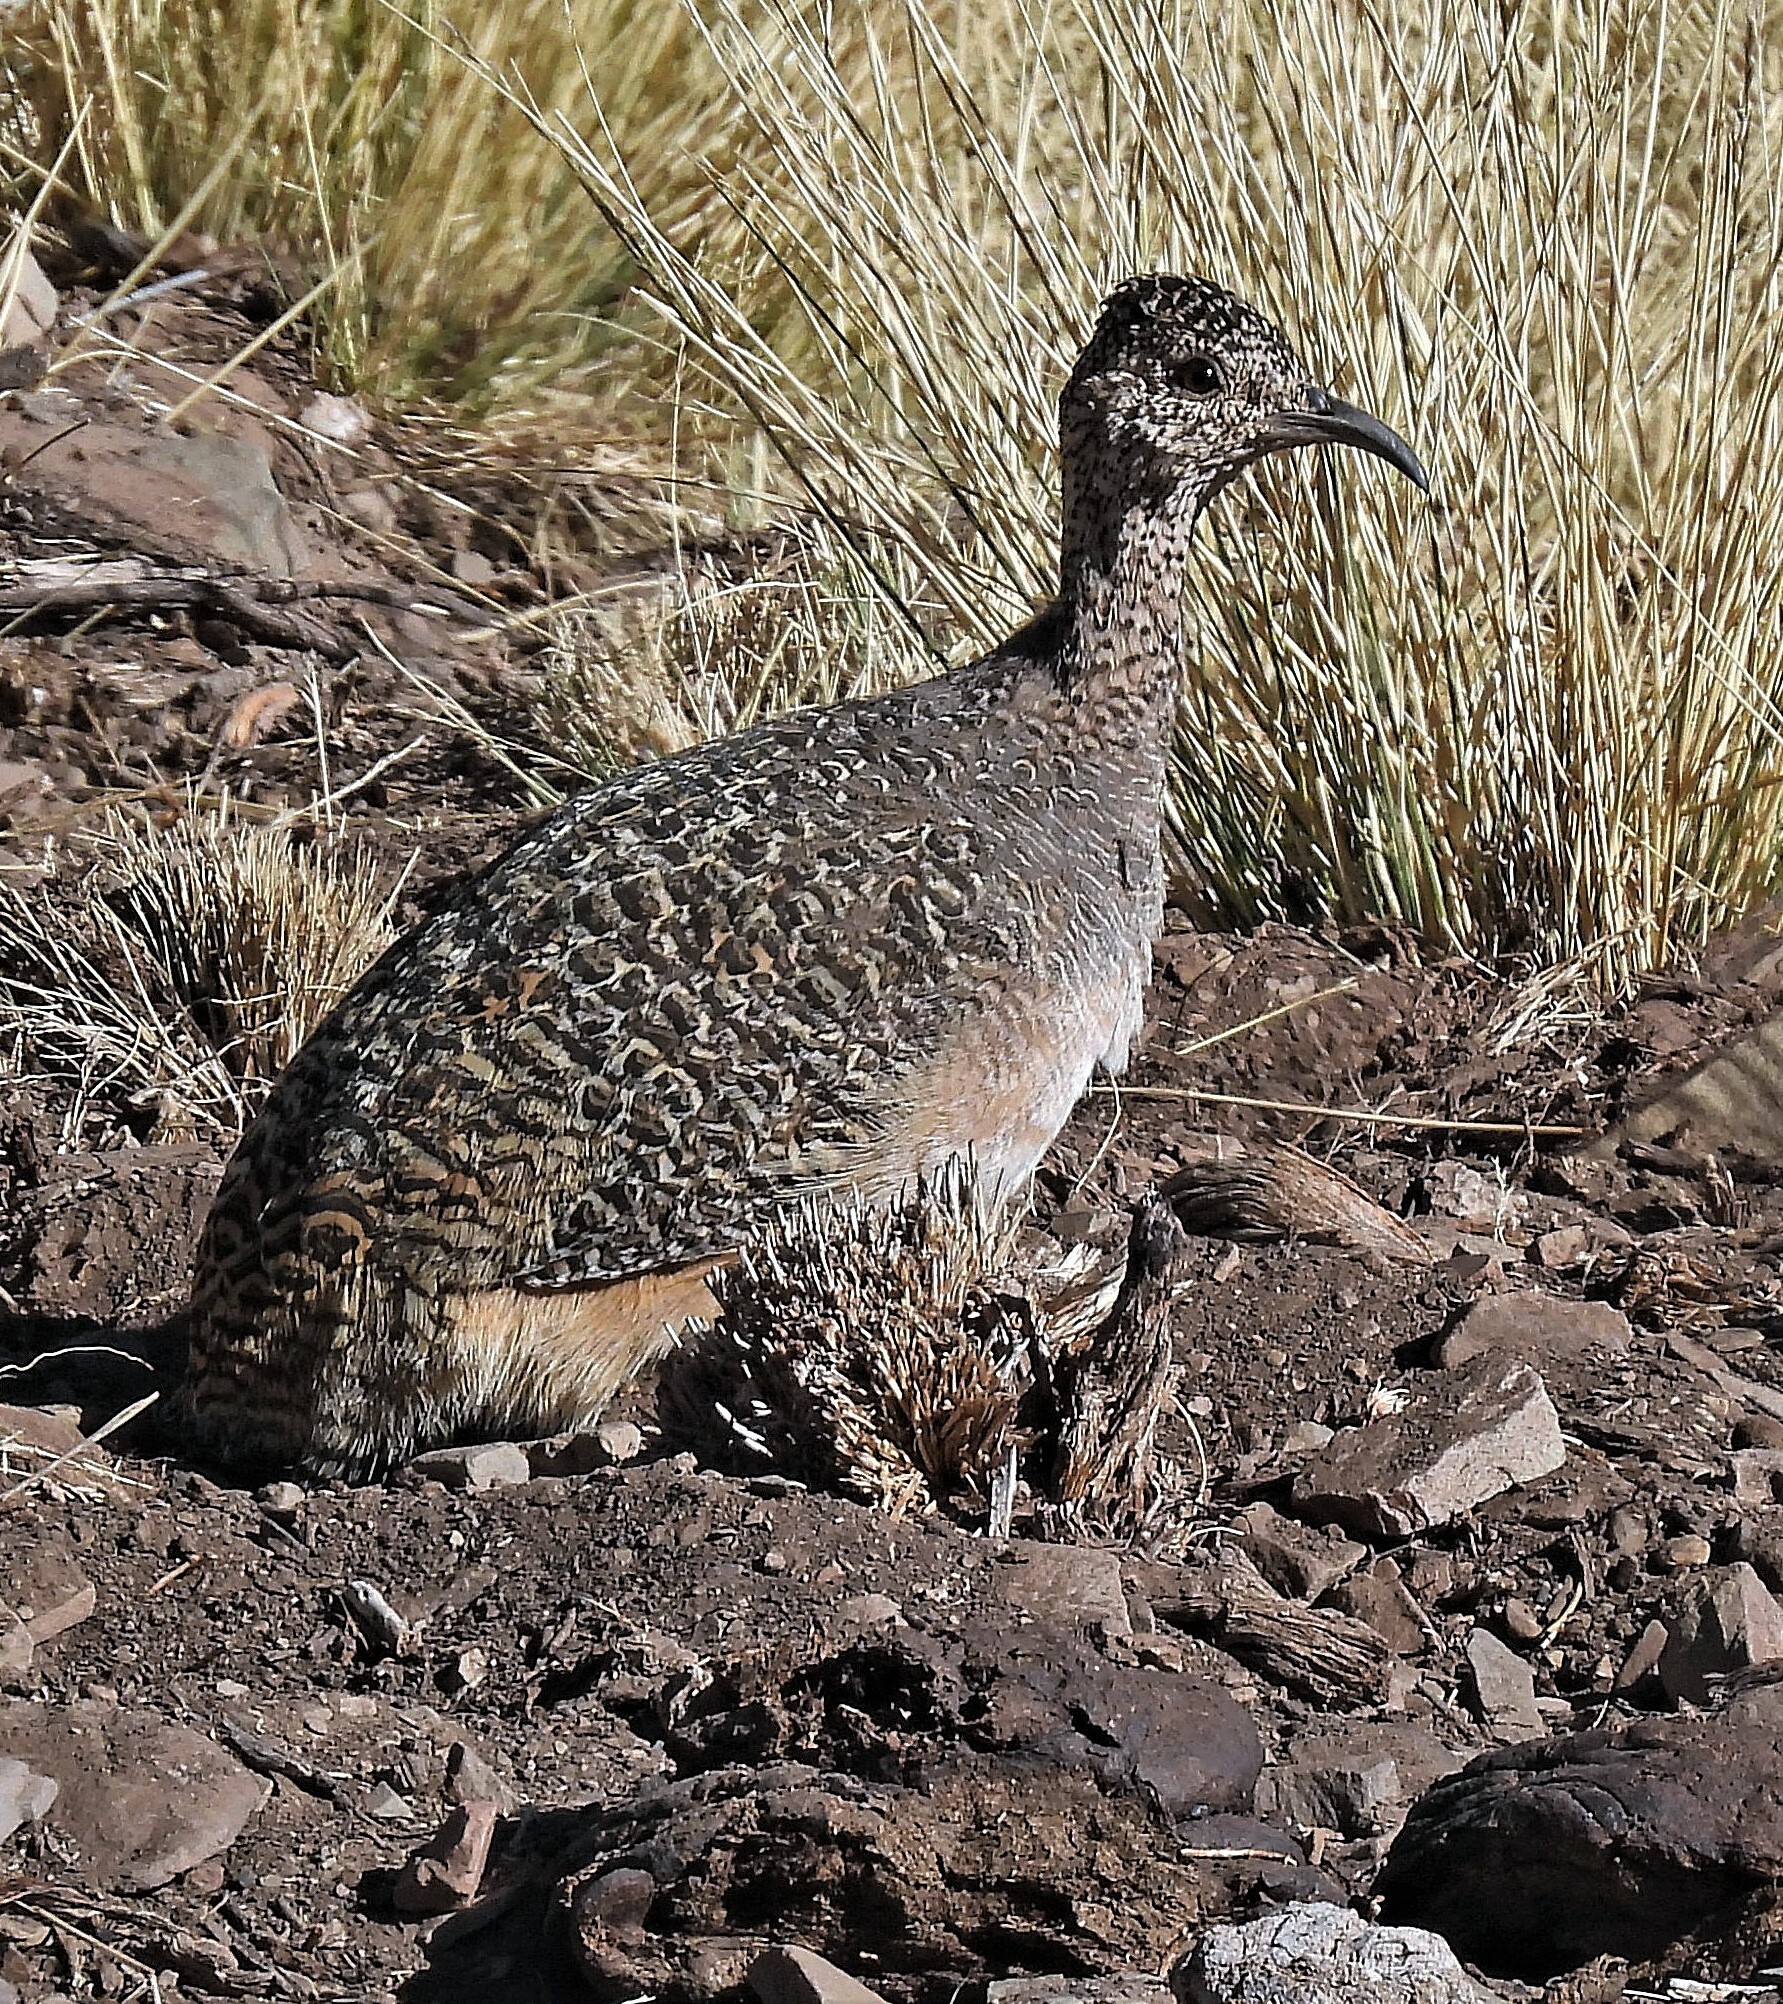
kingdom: Animalia
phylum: Chordata
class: Aves
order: Tinamiformes
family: Tinamidae
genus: Nothoprocta
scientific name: Nothoprocta ornata
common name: Ornate tinamou
